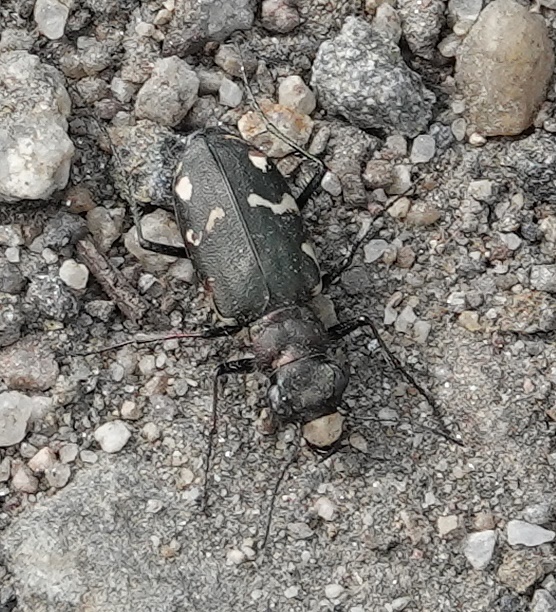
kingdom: Animalia
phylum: Arthropoda
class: Insecta
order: Coleoptera
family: Carabidae
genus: Cicindela
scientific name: Cicindela longilabris
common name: Boreal long-lipped tiger beetle
